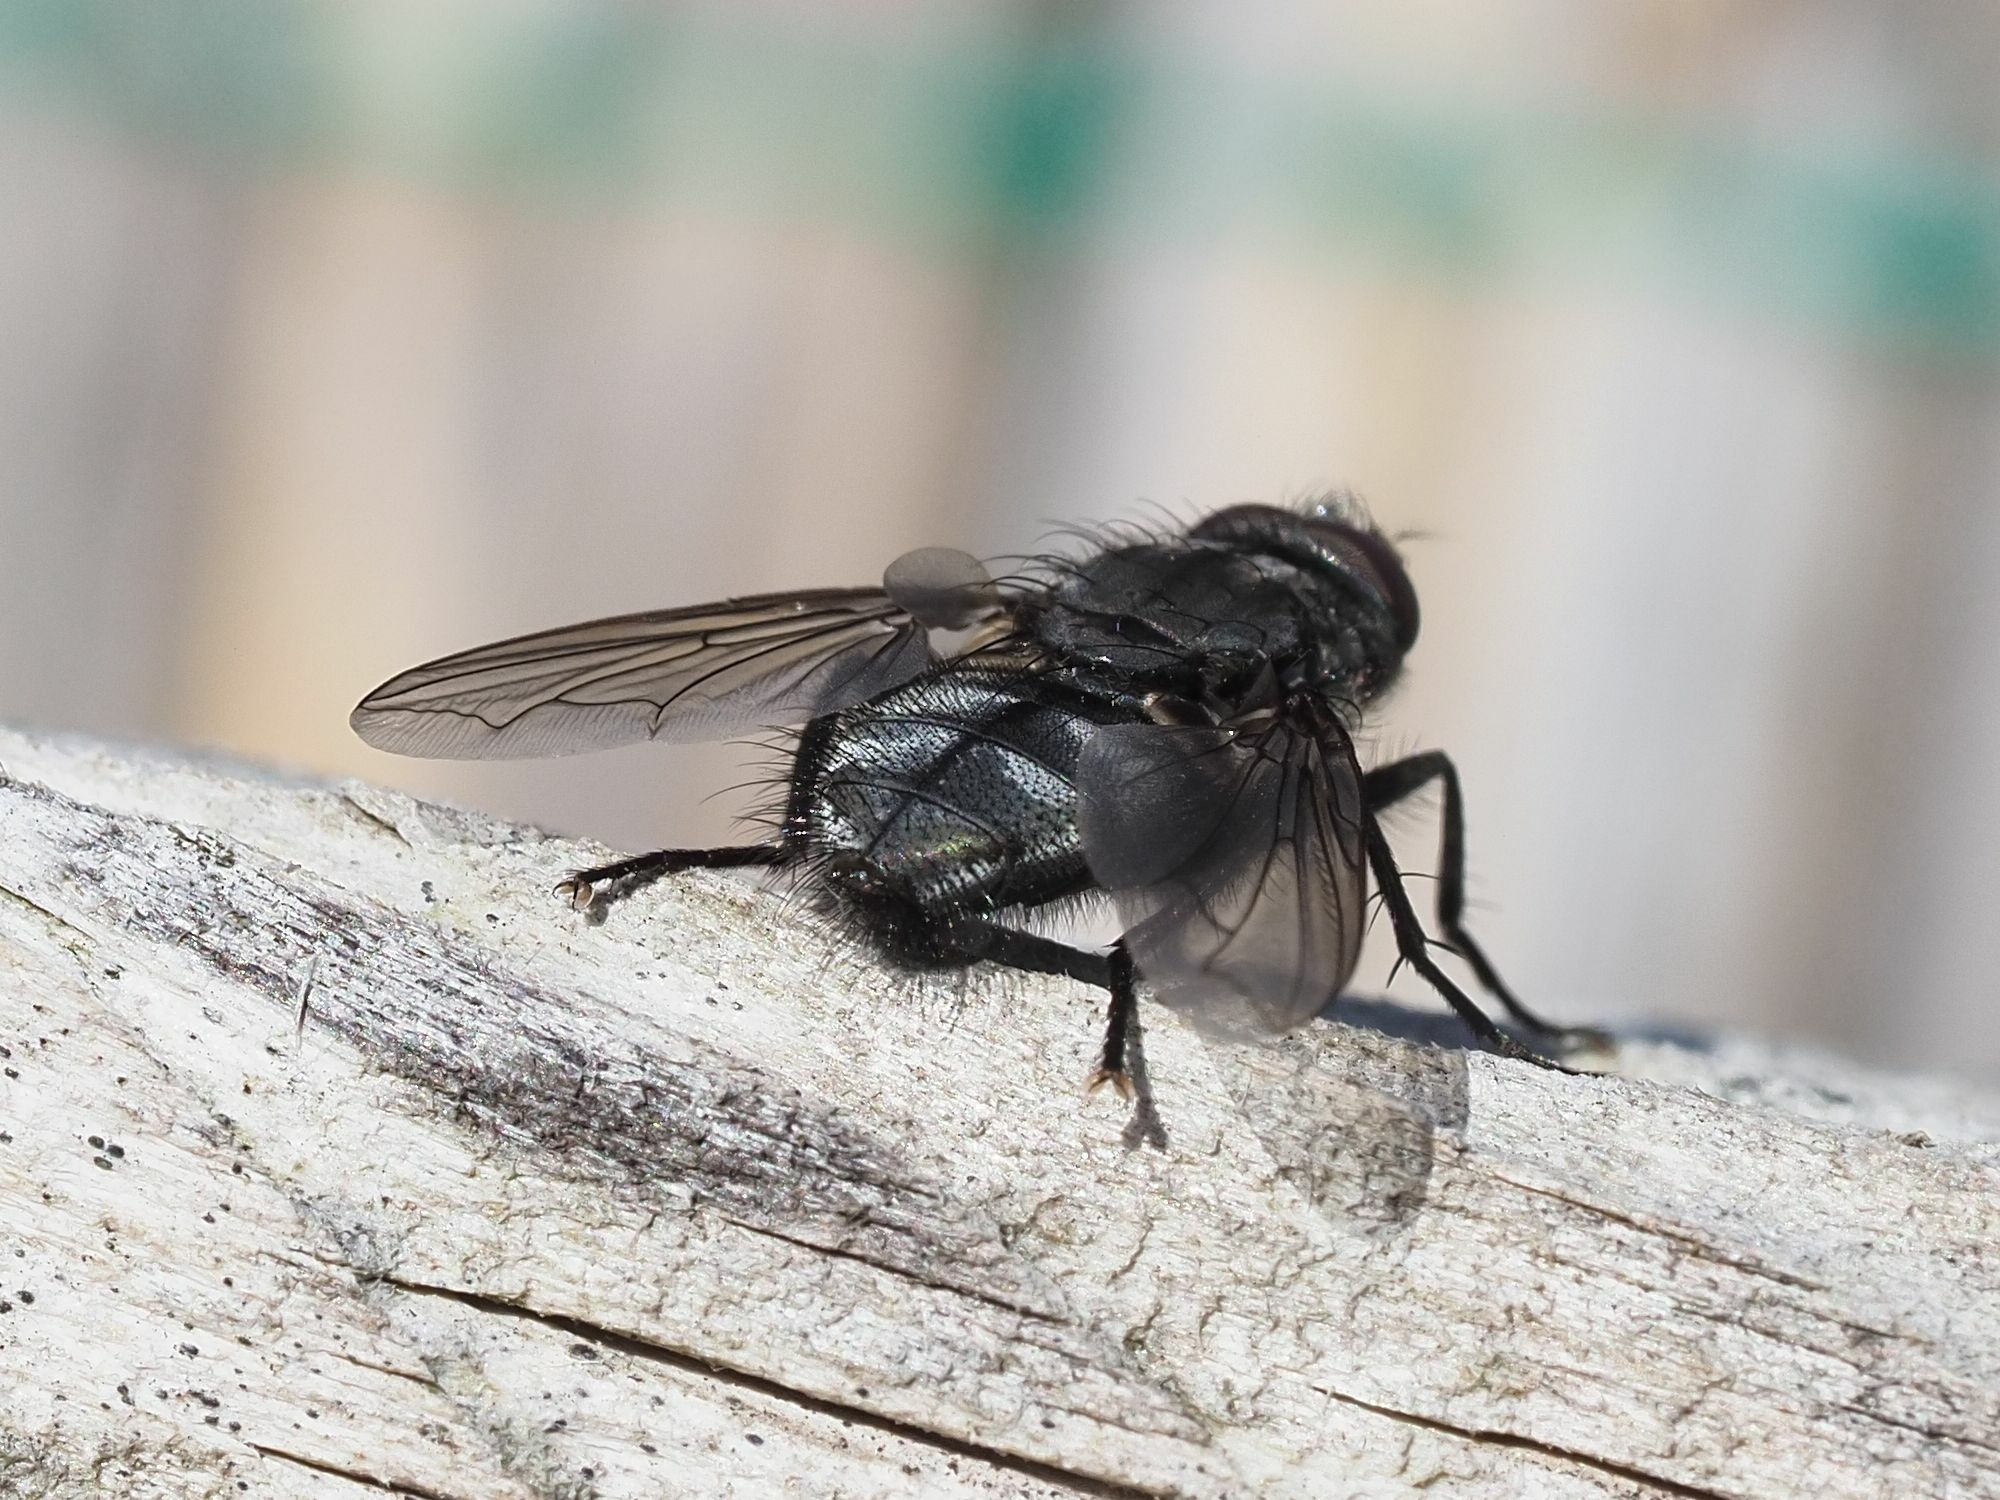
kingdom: Animalia
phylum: Arthropoda
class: Insecta
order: Diptera
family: Polleniidae
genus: Pollenia
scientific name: Pollenia vagabunda
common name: Vagabund cluster fly
